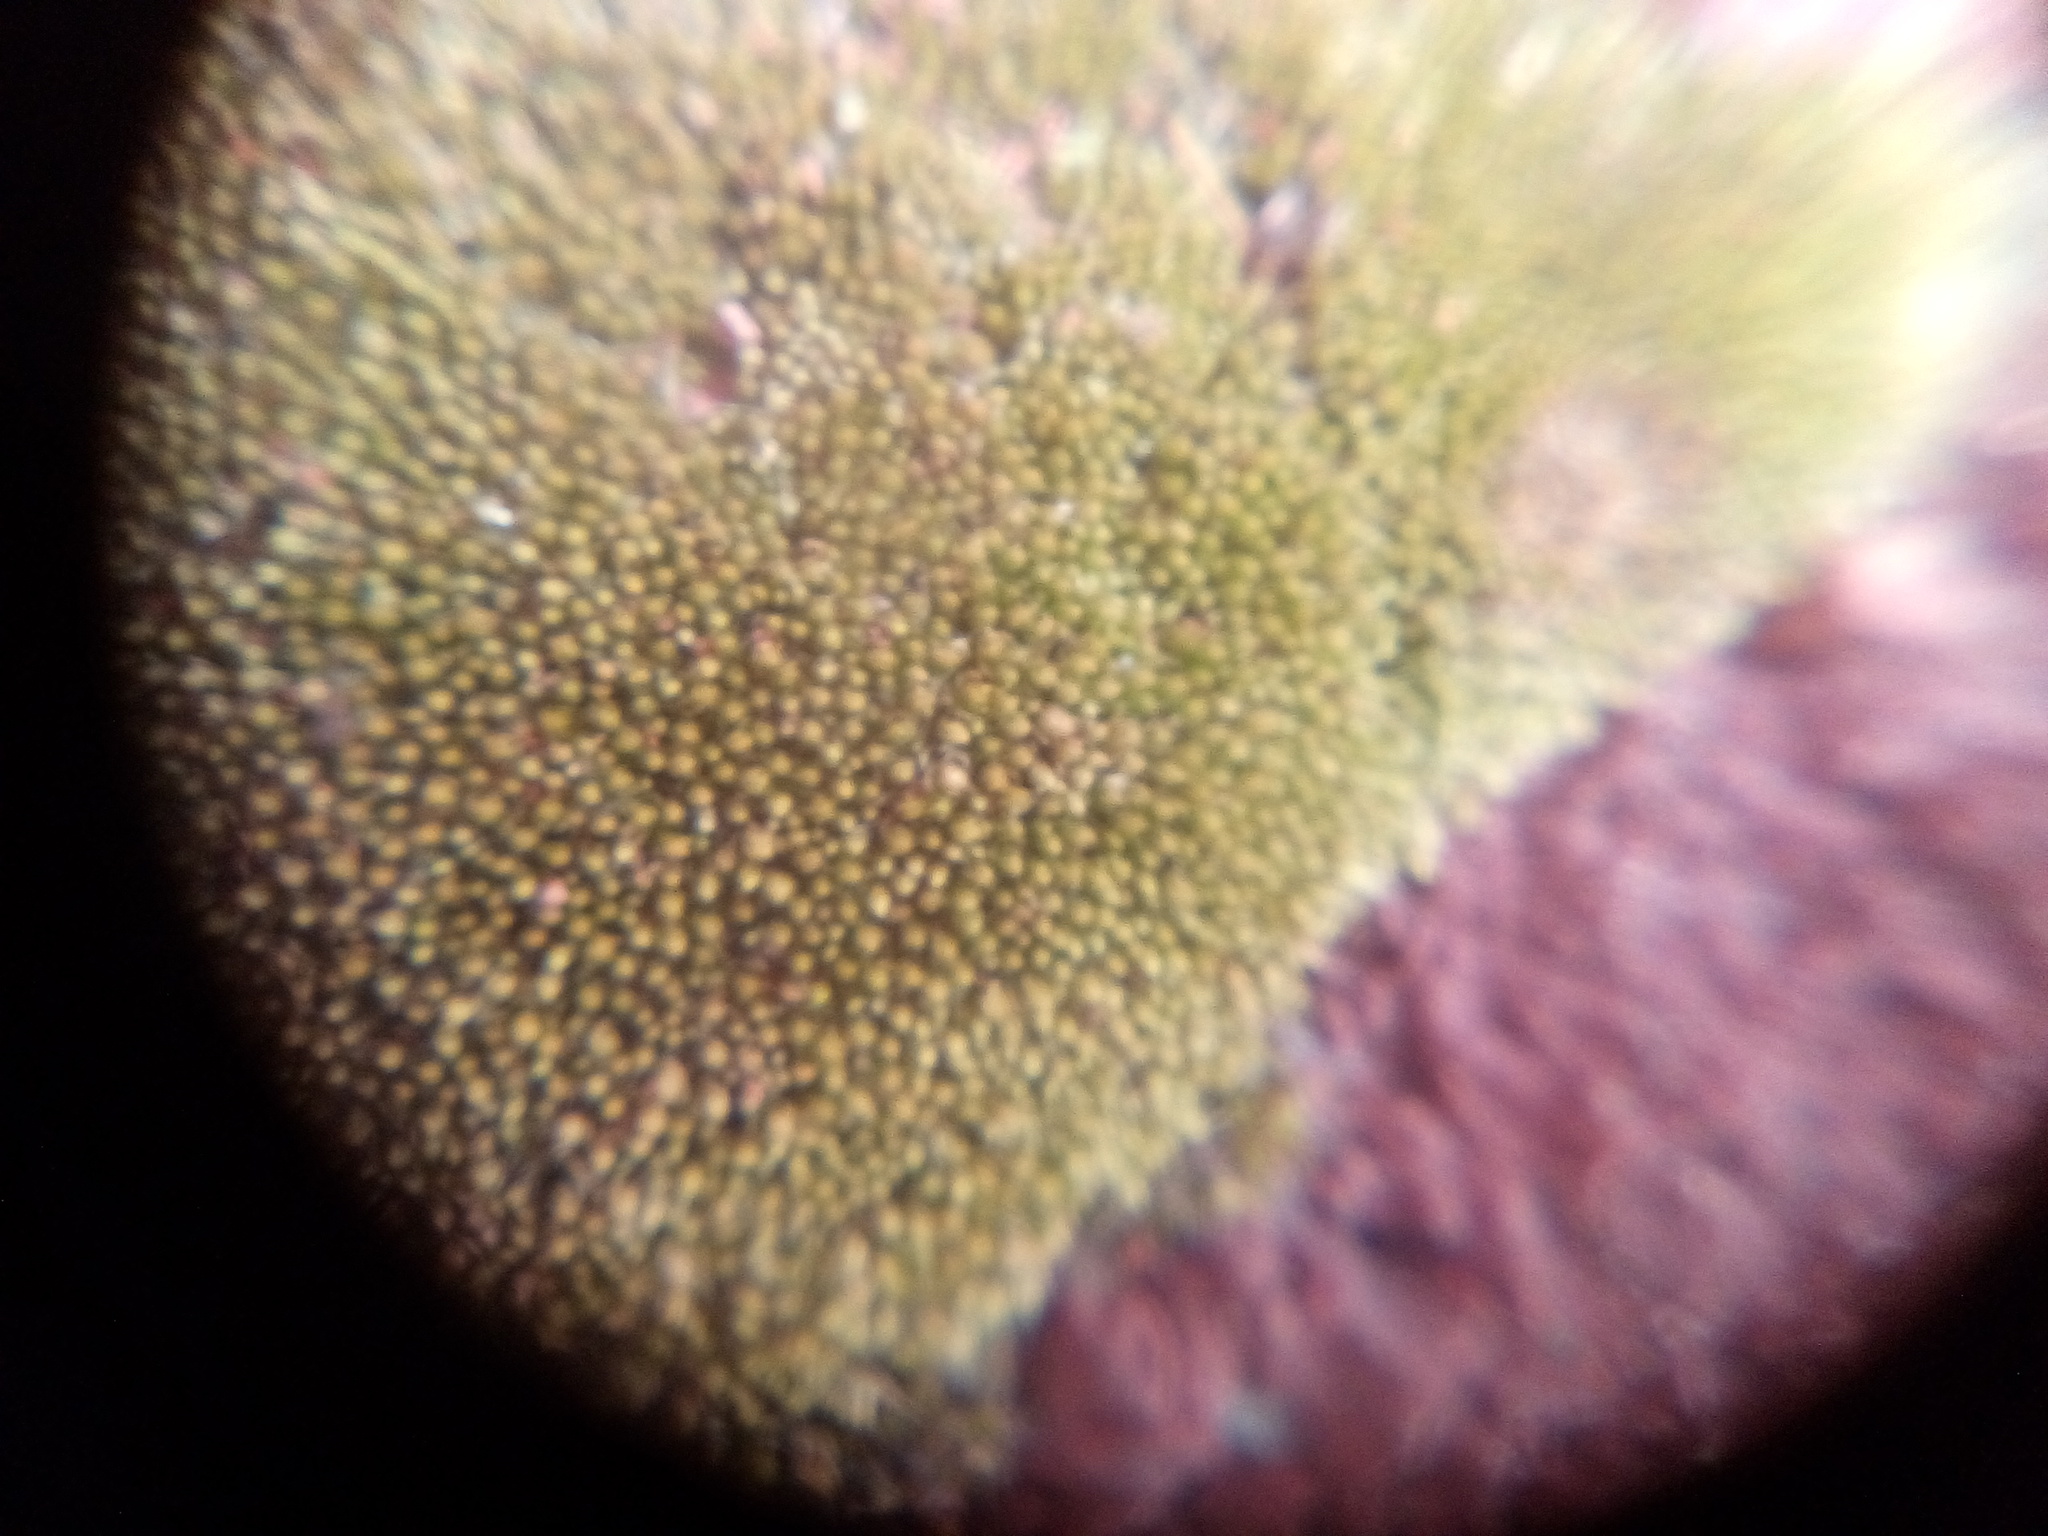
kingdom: Plantae
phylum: Bryophyta
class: Bryopsida
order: Bryales
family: Bryaceae
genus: Bryum
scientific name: Bryum argenteum
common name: Silver-moss
